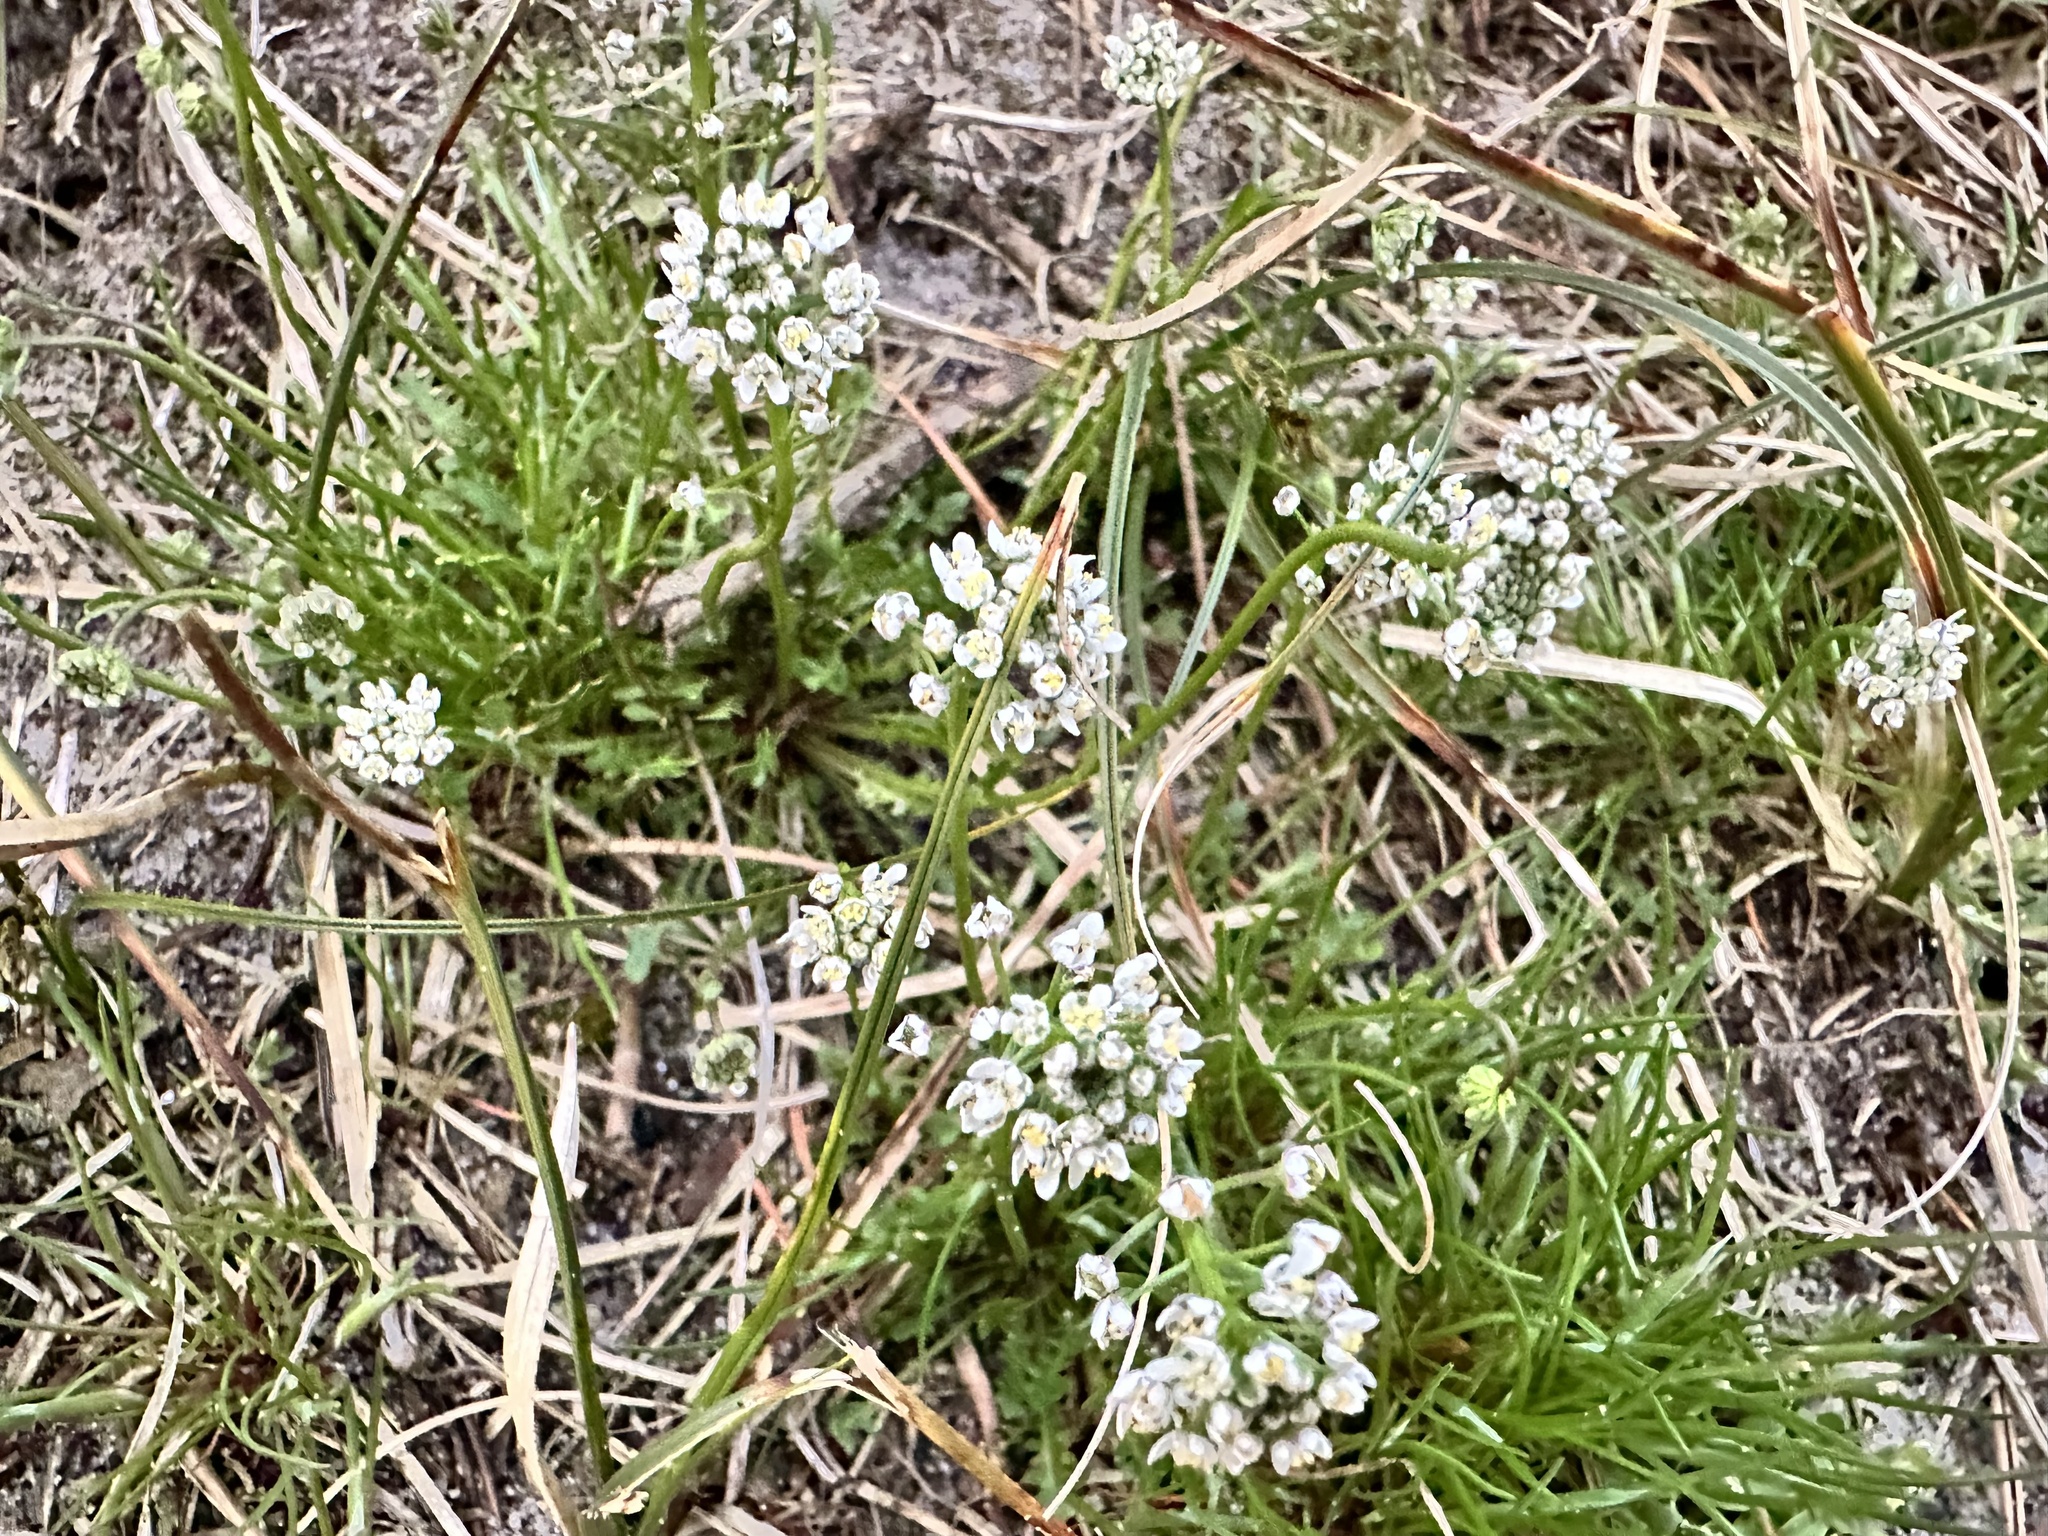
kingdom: Plantae
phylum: Tracheophyta
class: Magnoliopsida
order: Brassicales
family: Brassicaceae
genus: Teesdalia
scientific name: Teesdalia nudicaulis
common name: Shepherd's cress
